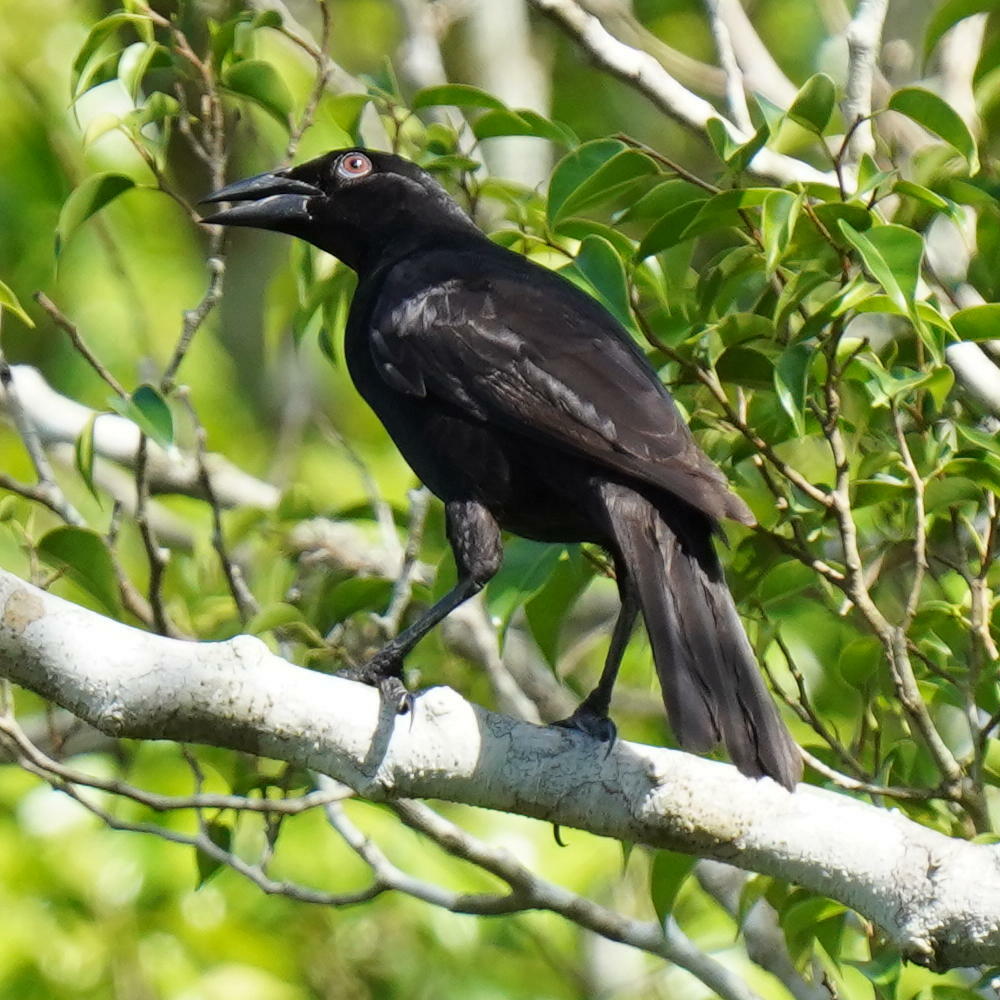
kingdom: Animalia
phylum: Chordata
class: Aves
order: Passeriformes
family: Icteridae
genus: Molothrus
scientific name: Molothrus oryzivorus
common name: Giant cowbird
